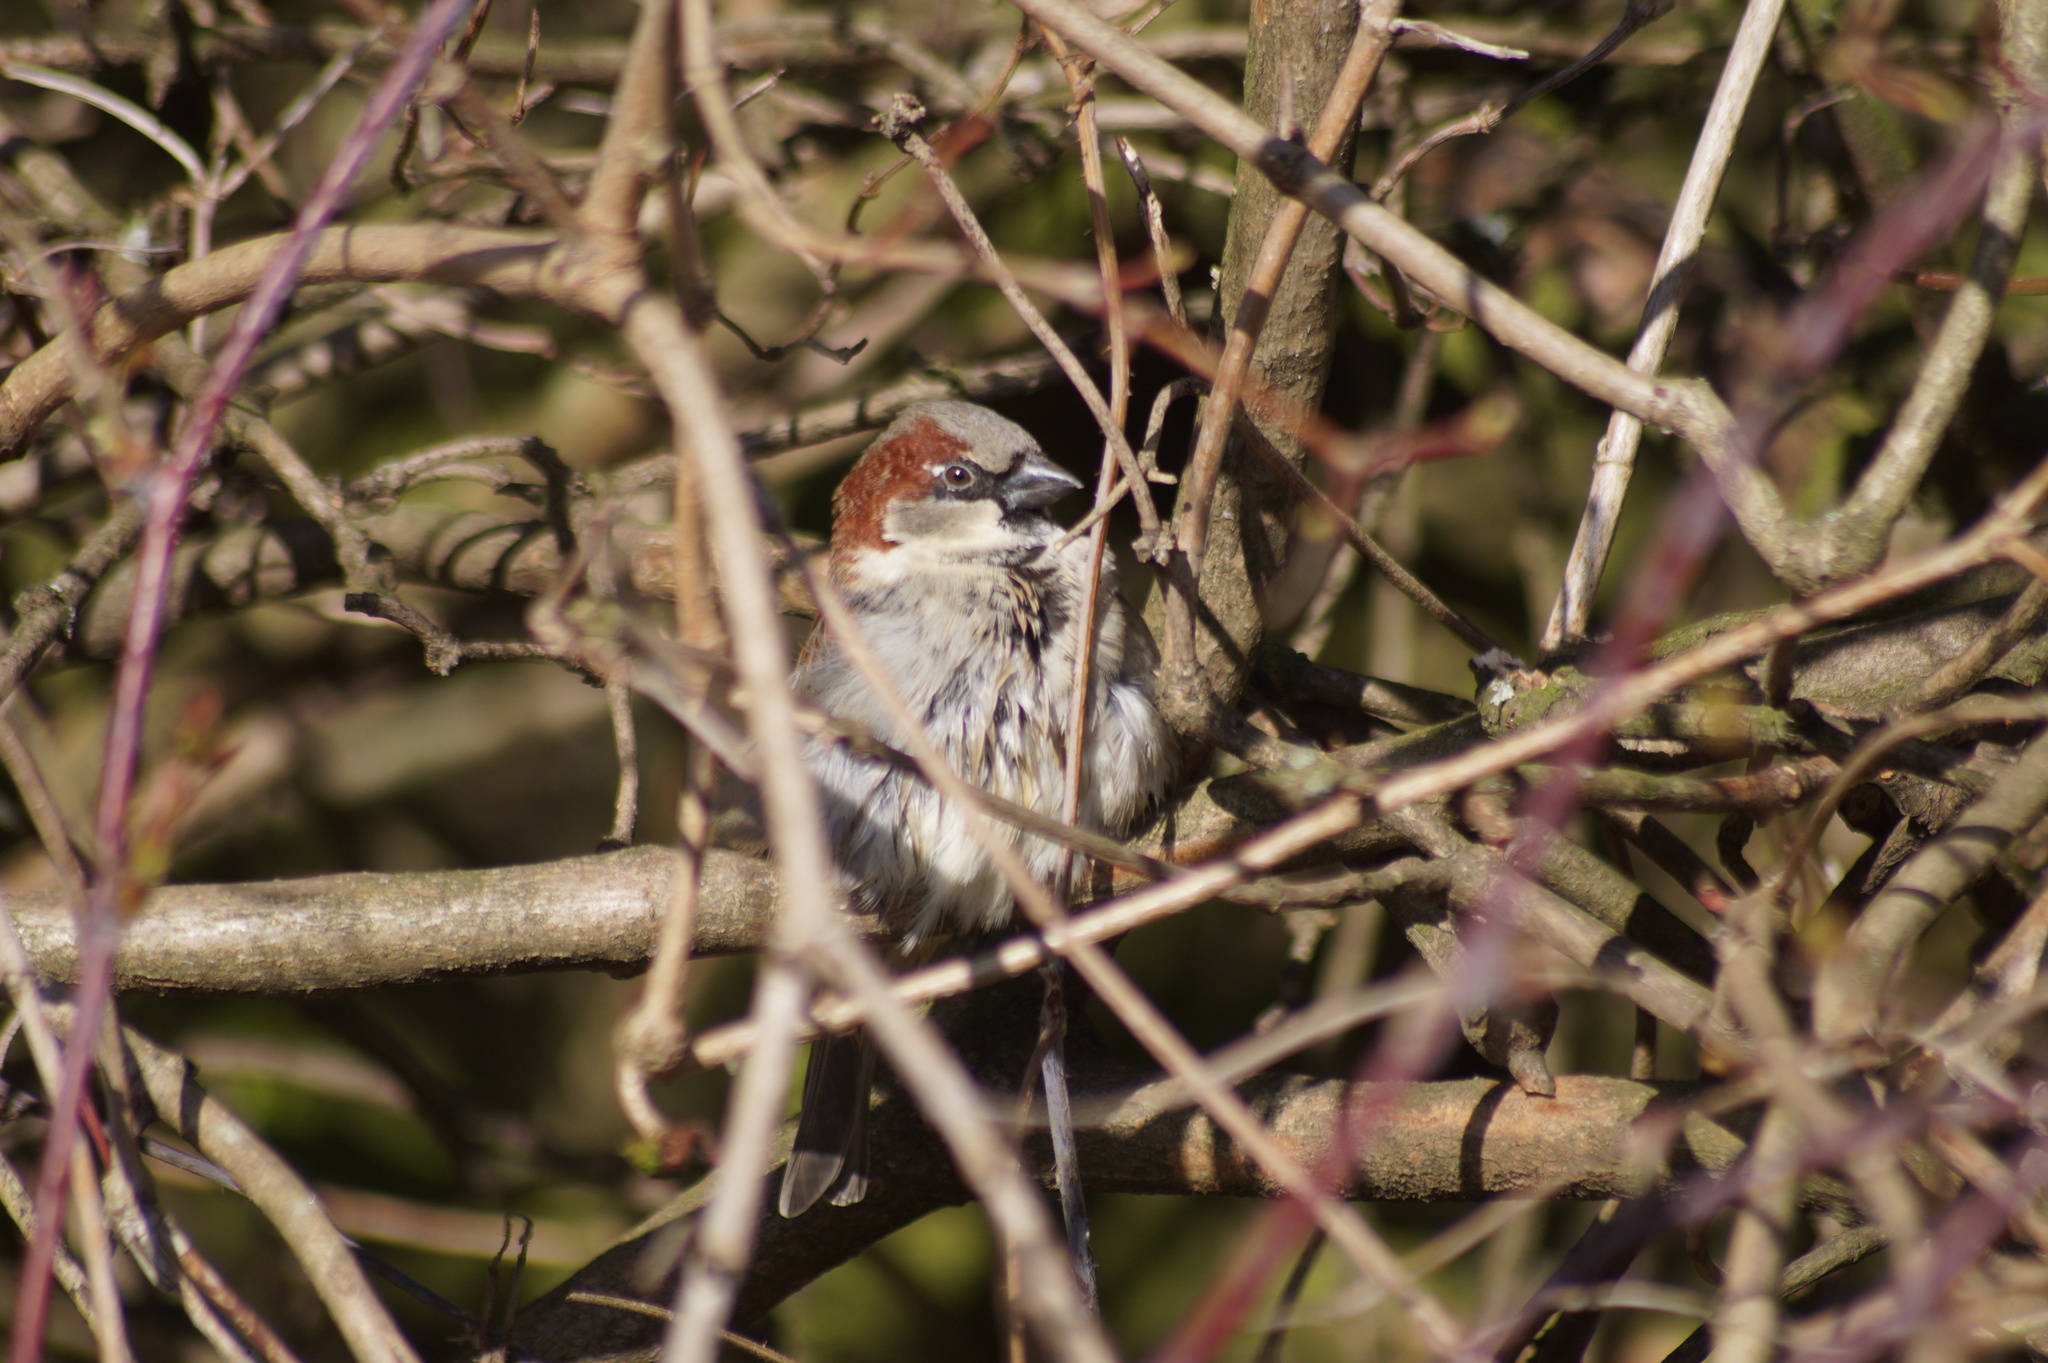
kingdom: Animalia
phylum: Chordata
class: Aves
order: Passeriformes
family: Passeridae
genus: Passer
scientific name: Passer domesticus
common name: House sparrow
